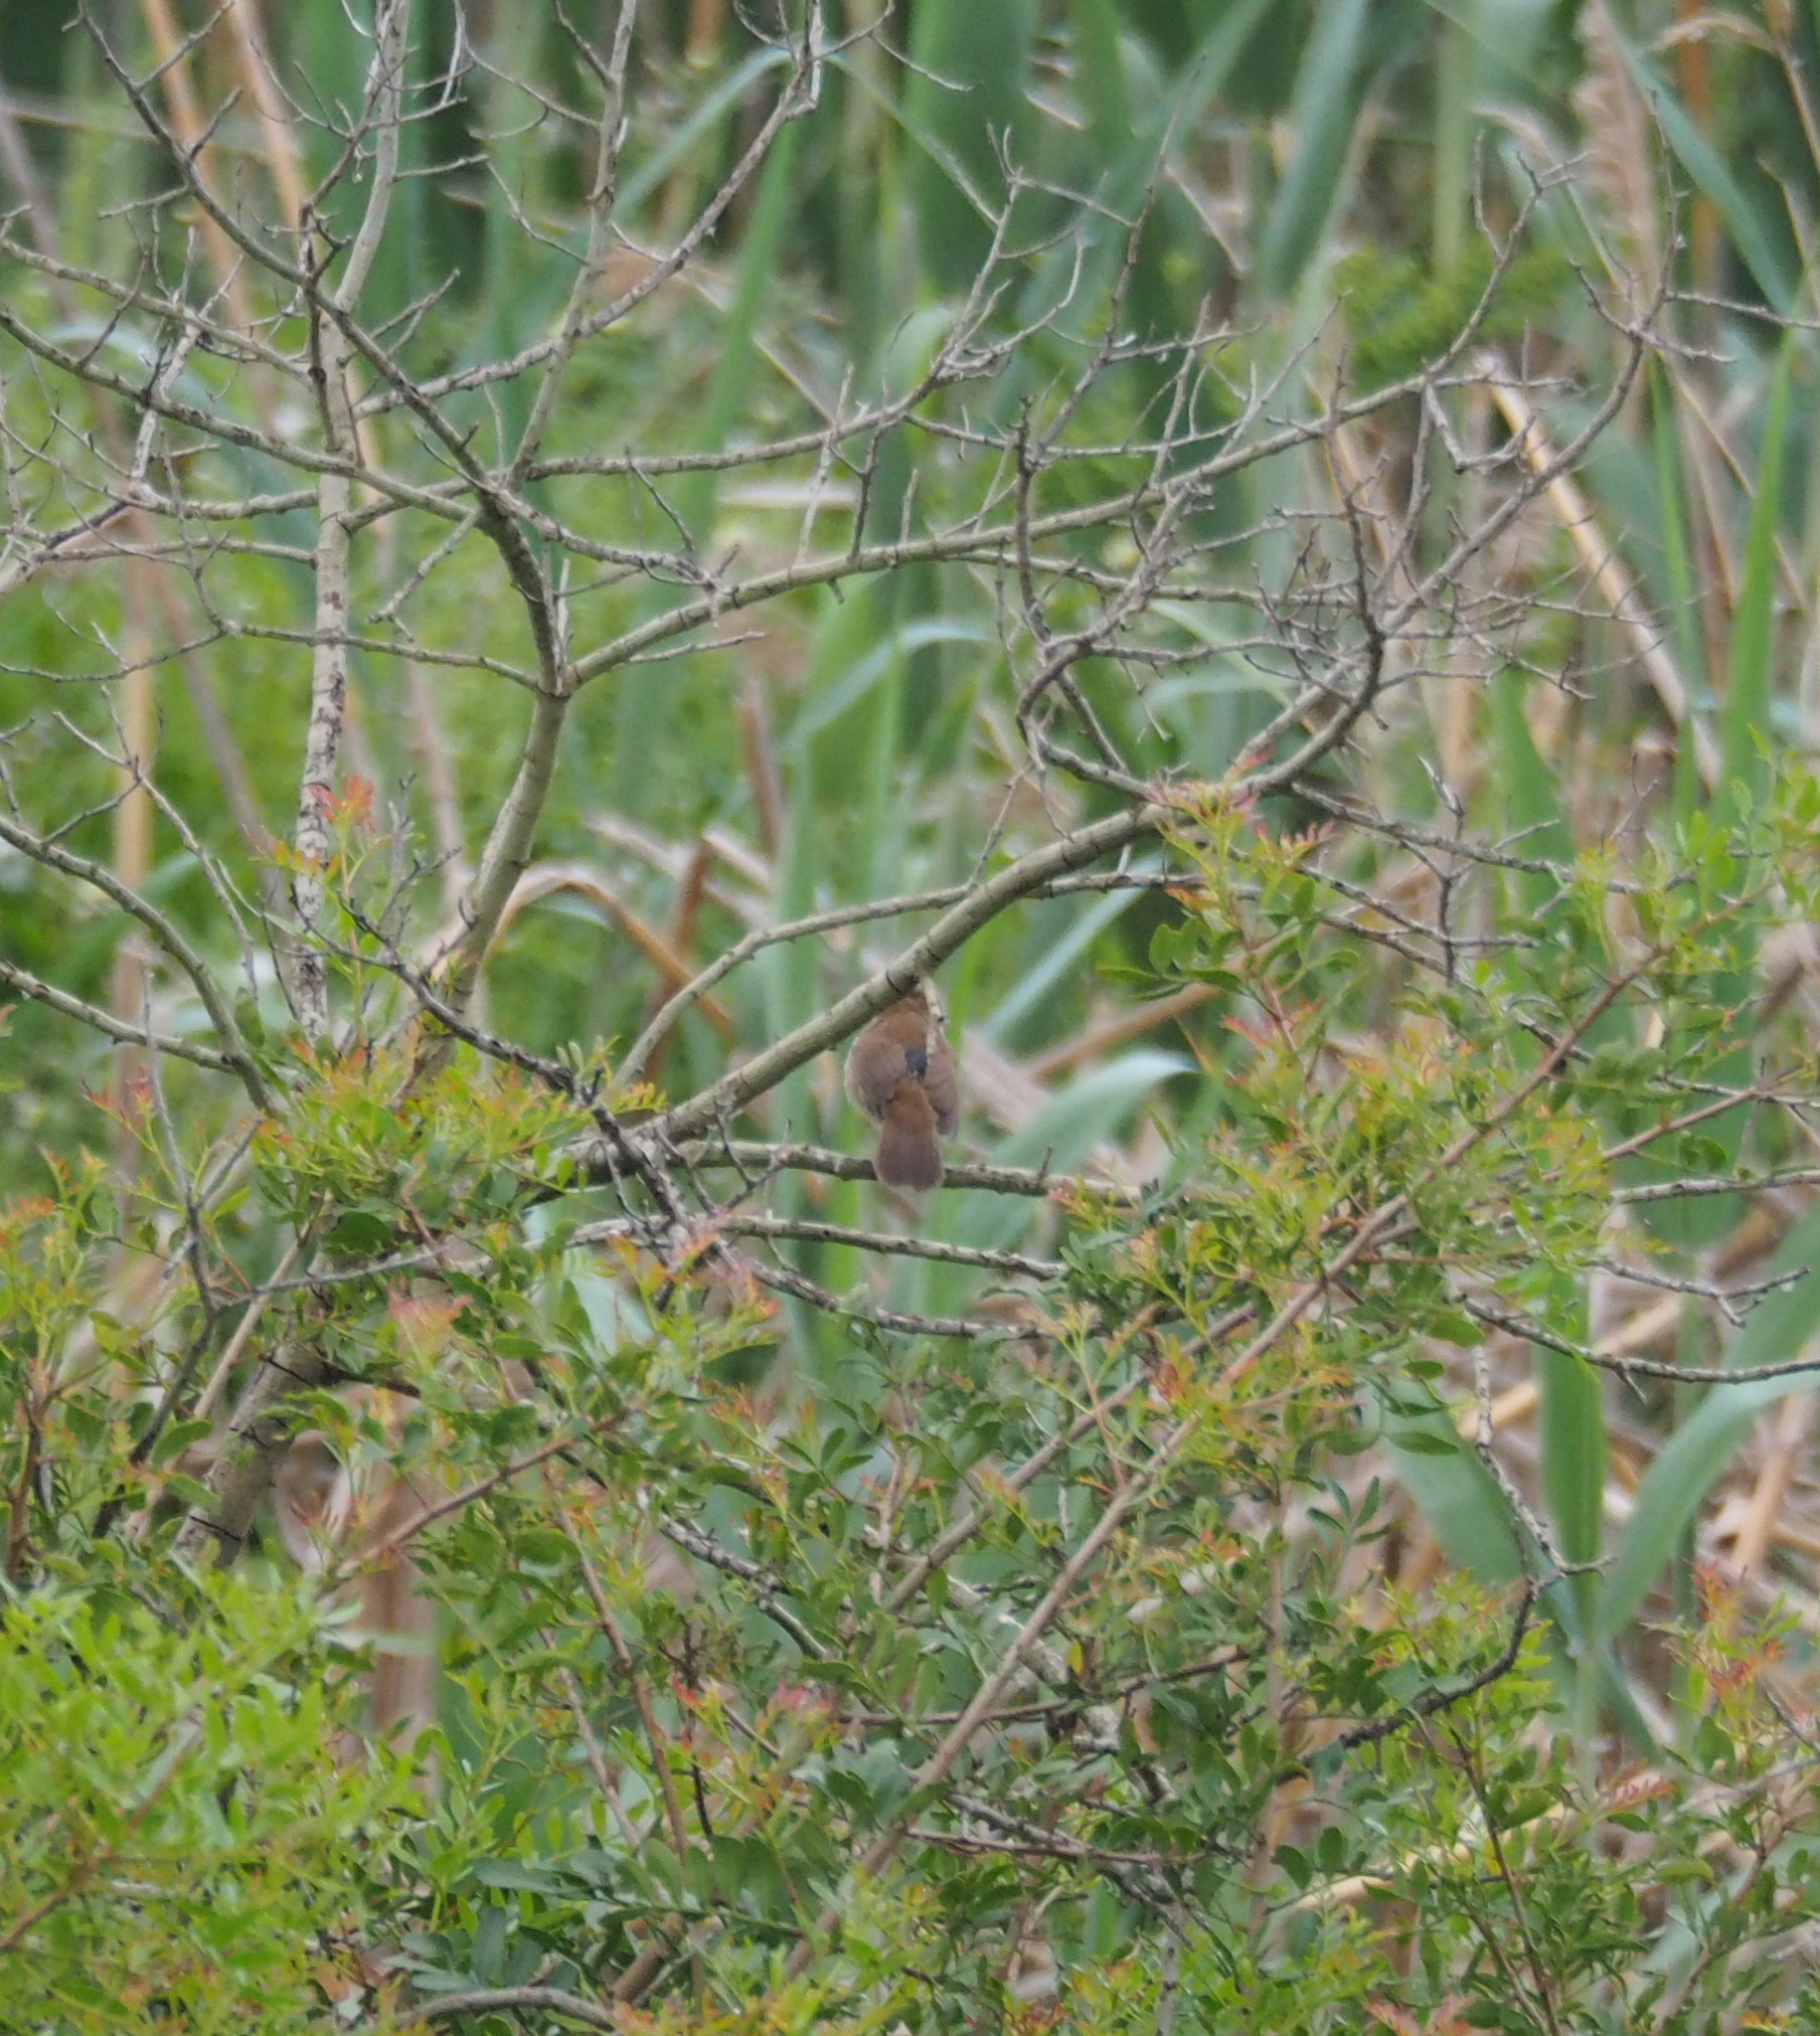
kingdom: Animalia
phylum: Chordata
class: Aves
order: Passeriformes
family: Cettiidae
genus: Cettia
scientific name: Cettia cetti
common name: Cetti's warbler
